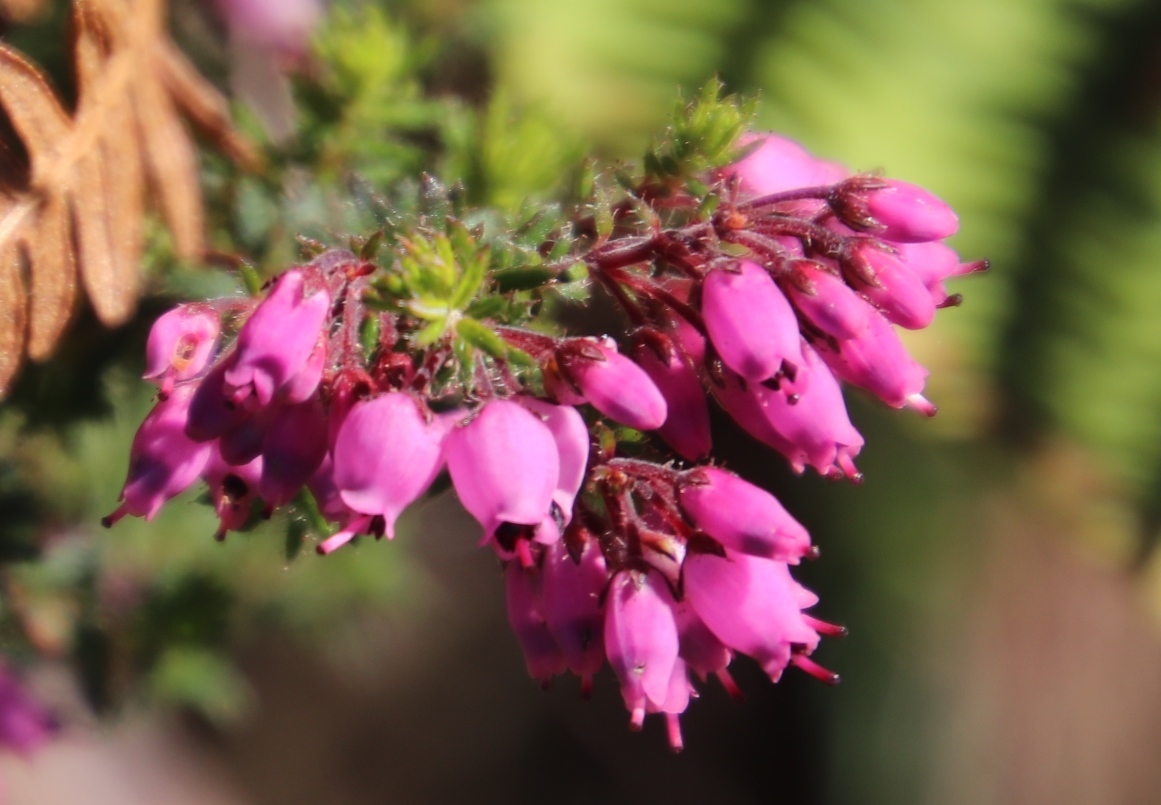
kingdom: Plantae
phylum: Tracheophyta
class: Magnoliopsida
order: Ericales
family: Ericaceae
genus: Erica
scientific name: Erica racemosa
